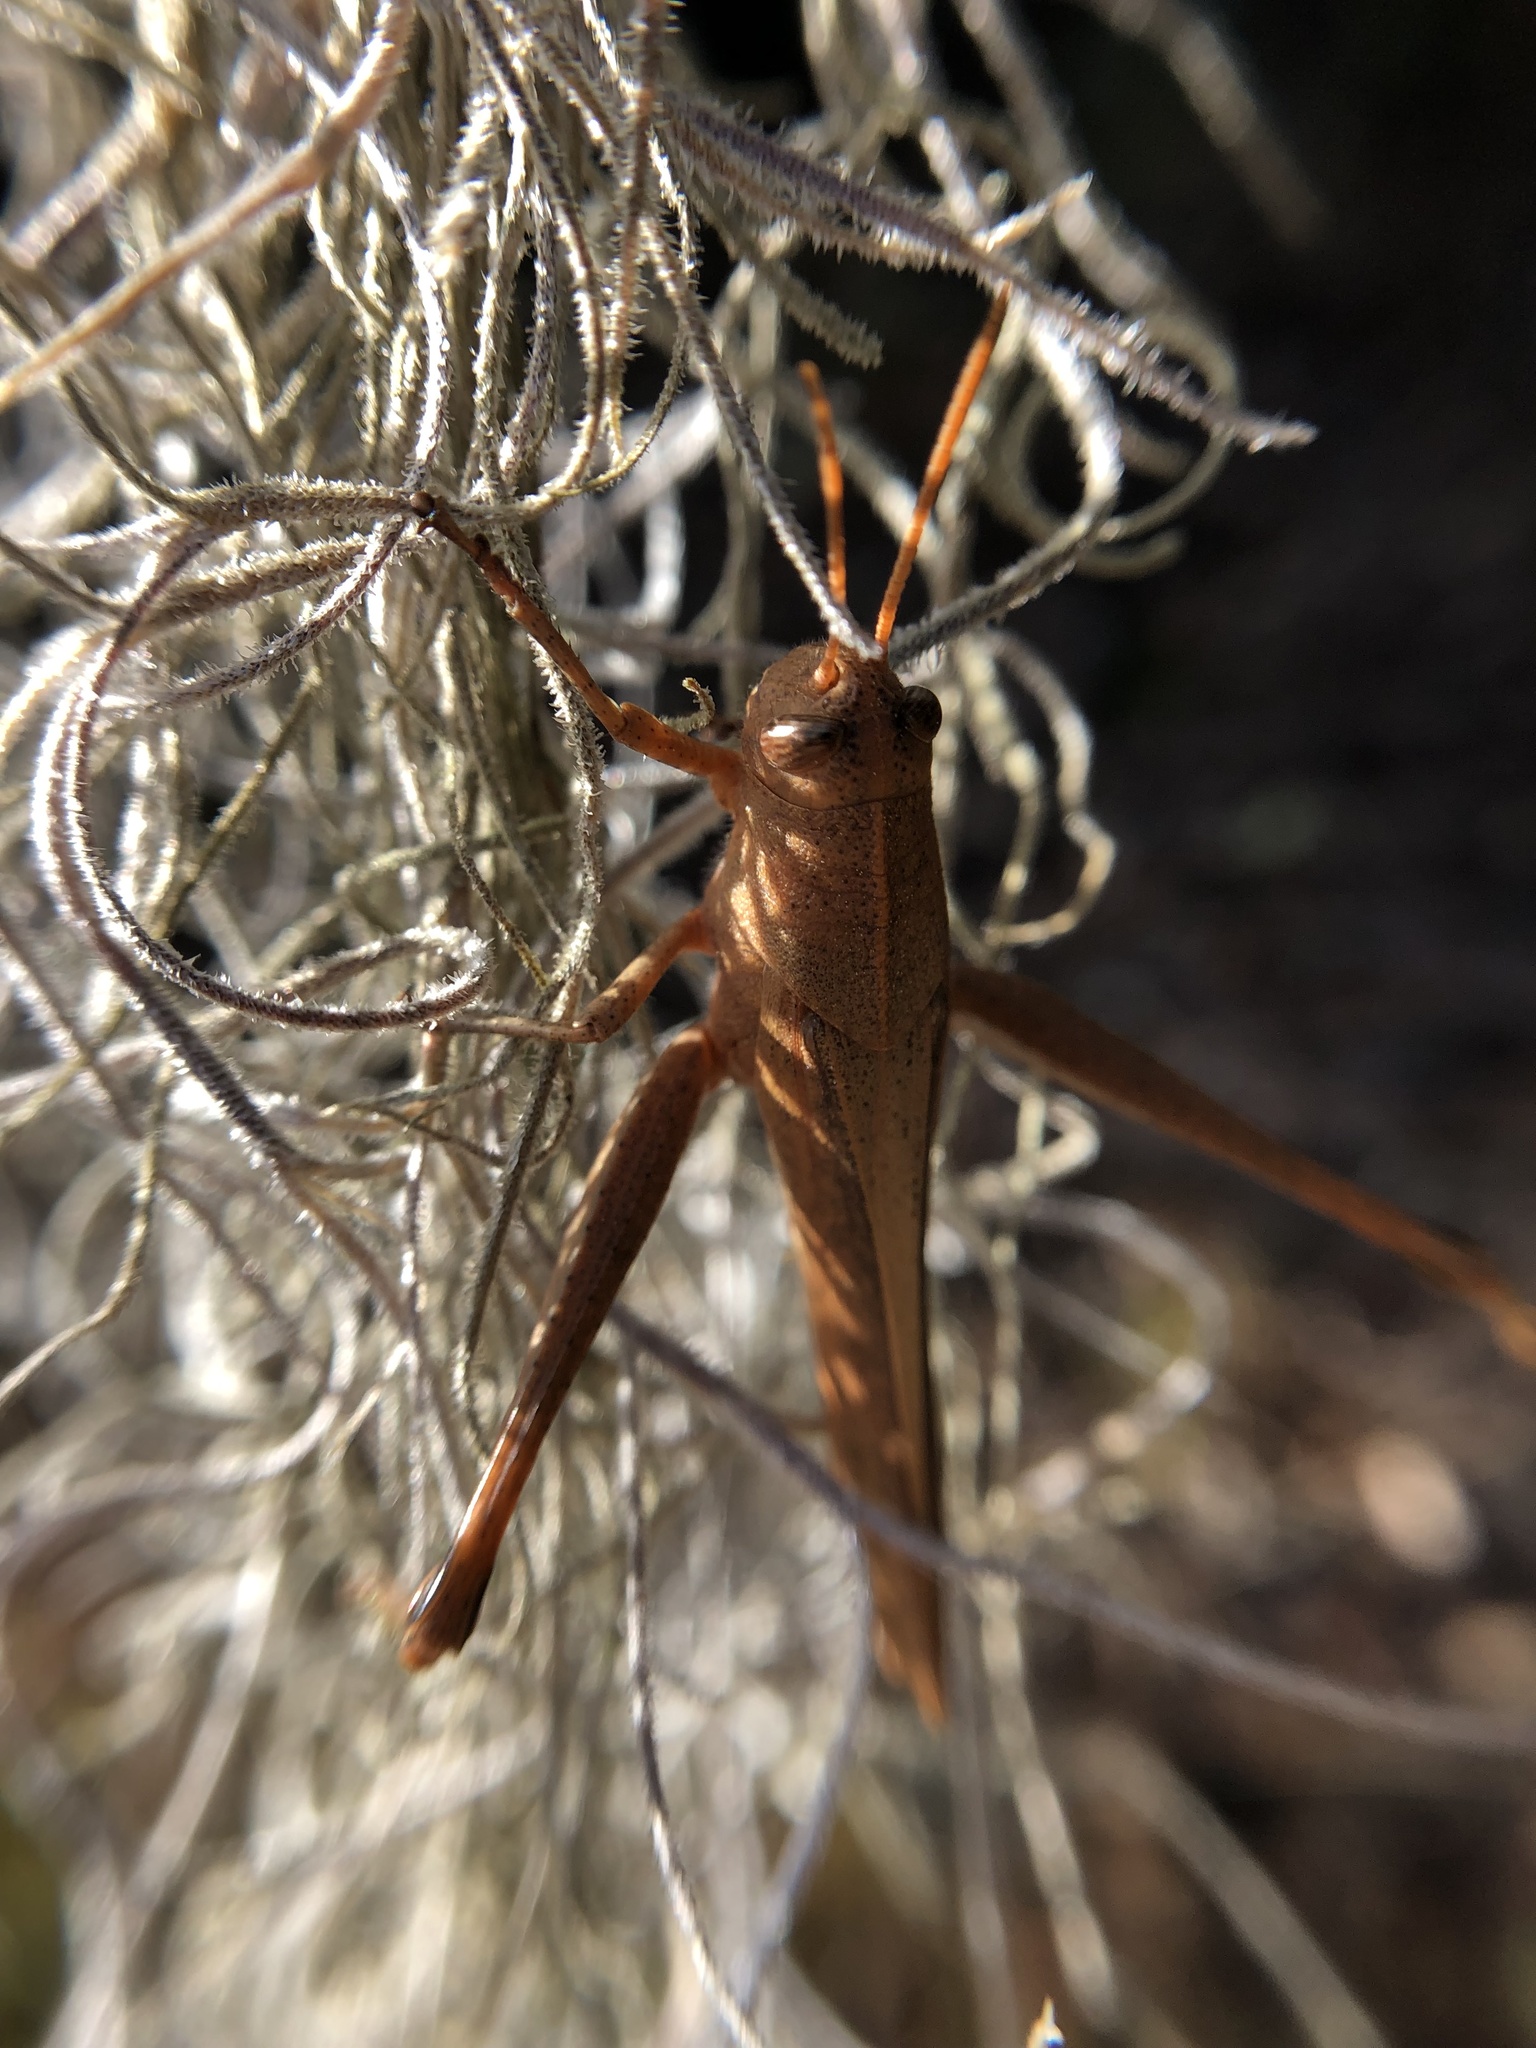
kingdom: Animalia
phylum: Arthropoda
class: Insecta
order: Orthoptera
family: Acrididae
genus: Schistocerca
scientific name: Schistocerca damnifica
